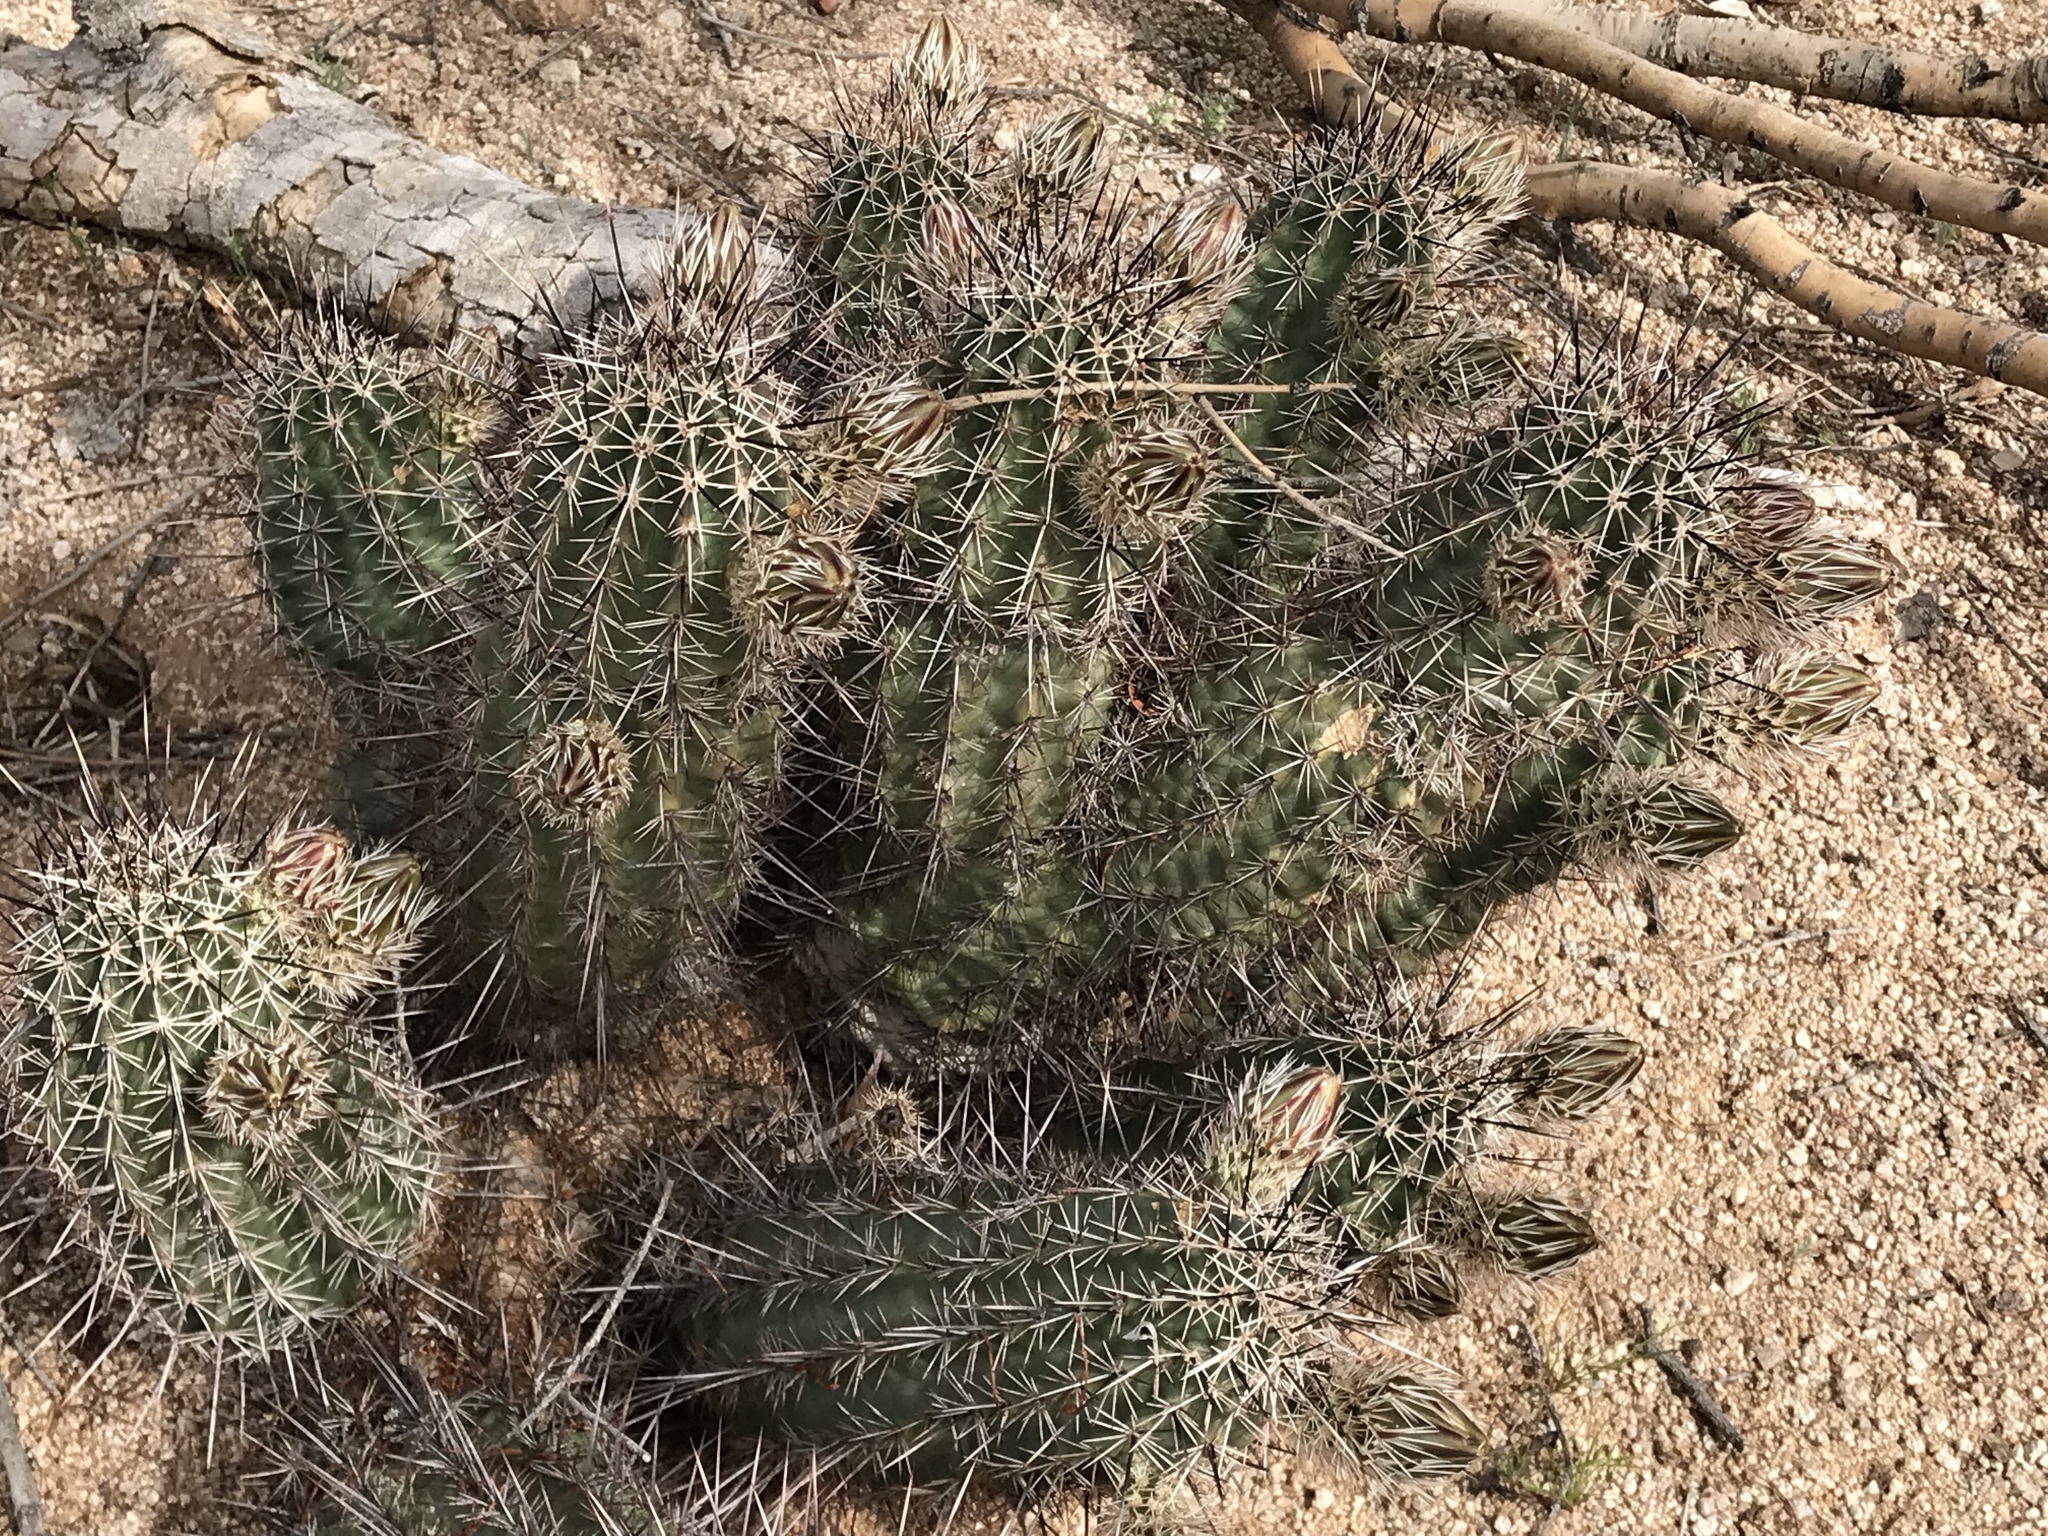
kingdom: Plantae
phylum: Tracheophyta
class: Magnoliopsida
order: Caryophyllales
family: Cactaceae
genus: Echinocereus
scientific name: Echinocereus fasciculatus
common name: Bundle hedgehog
